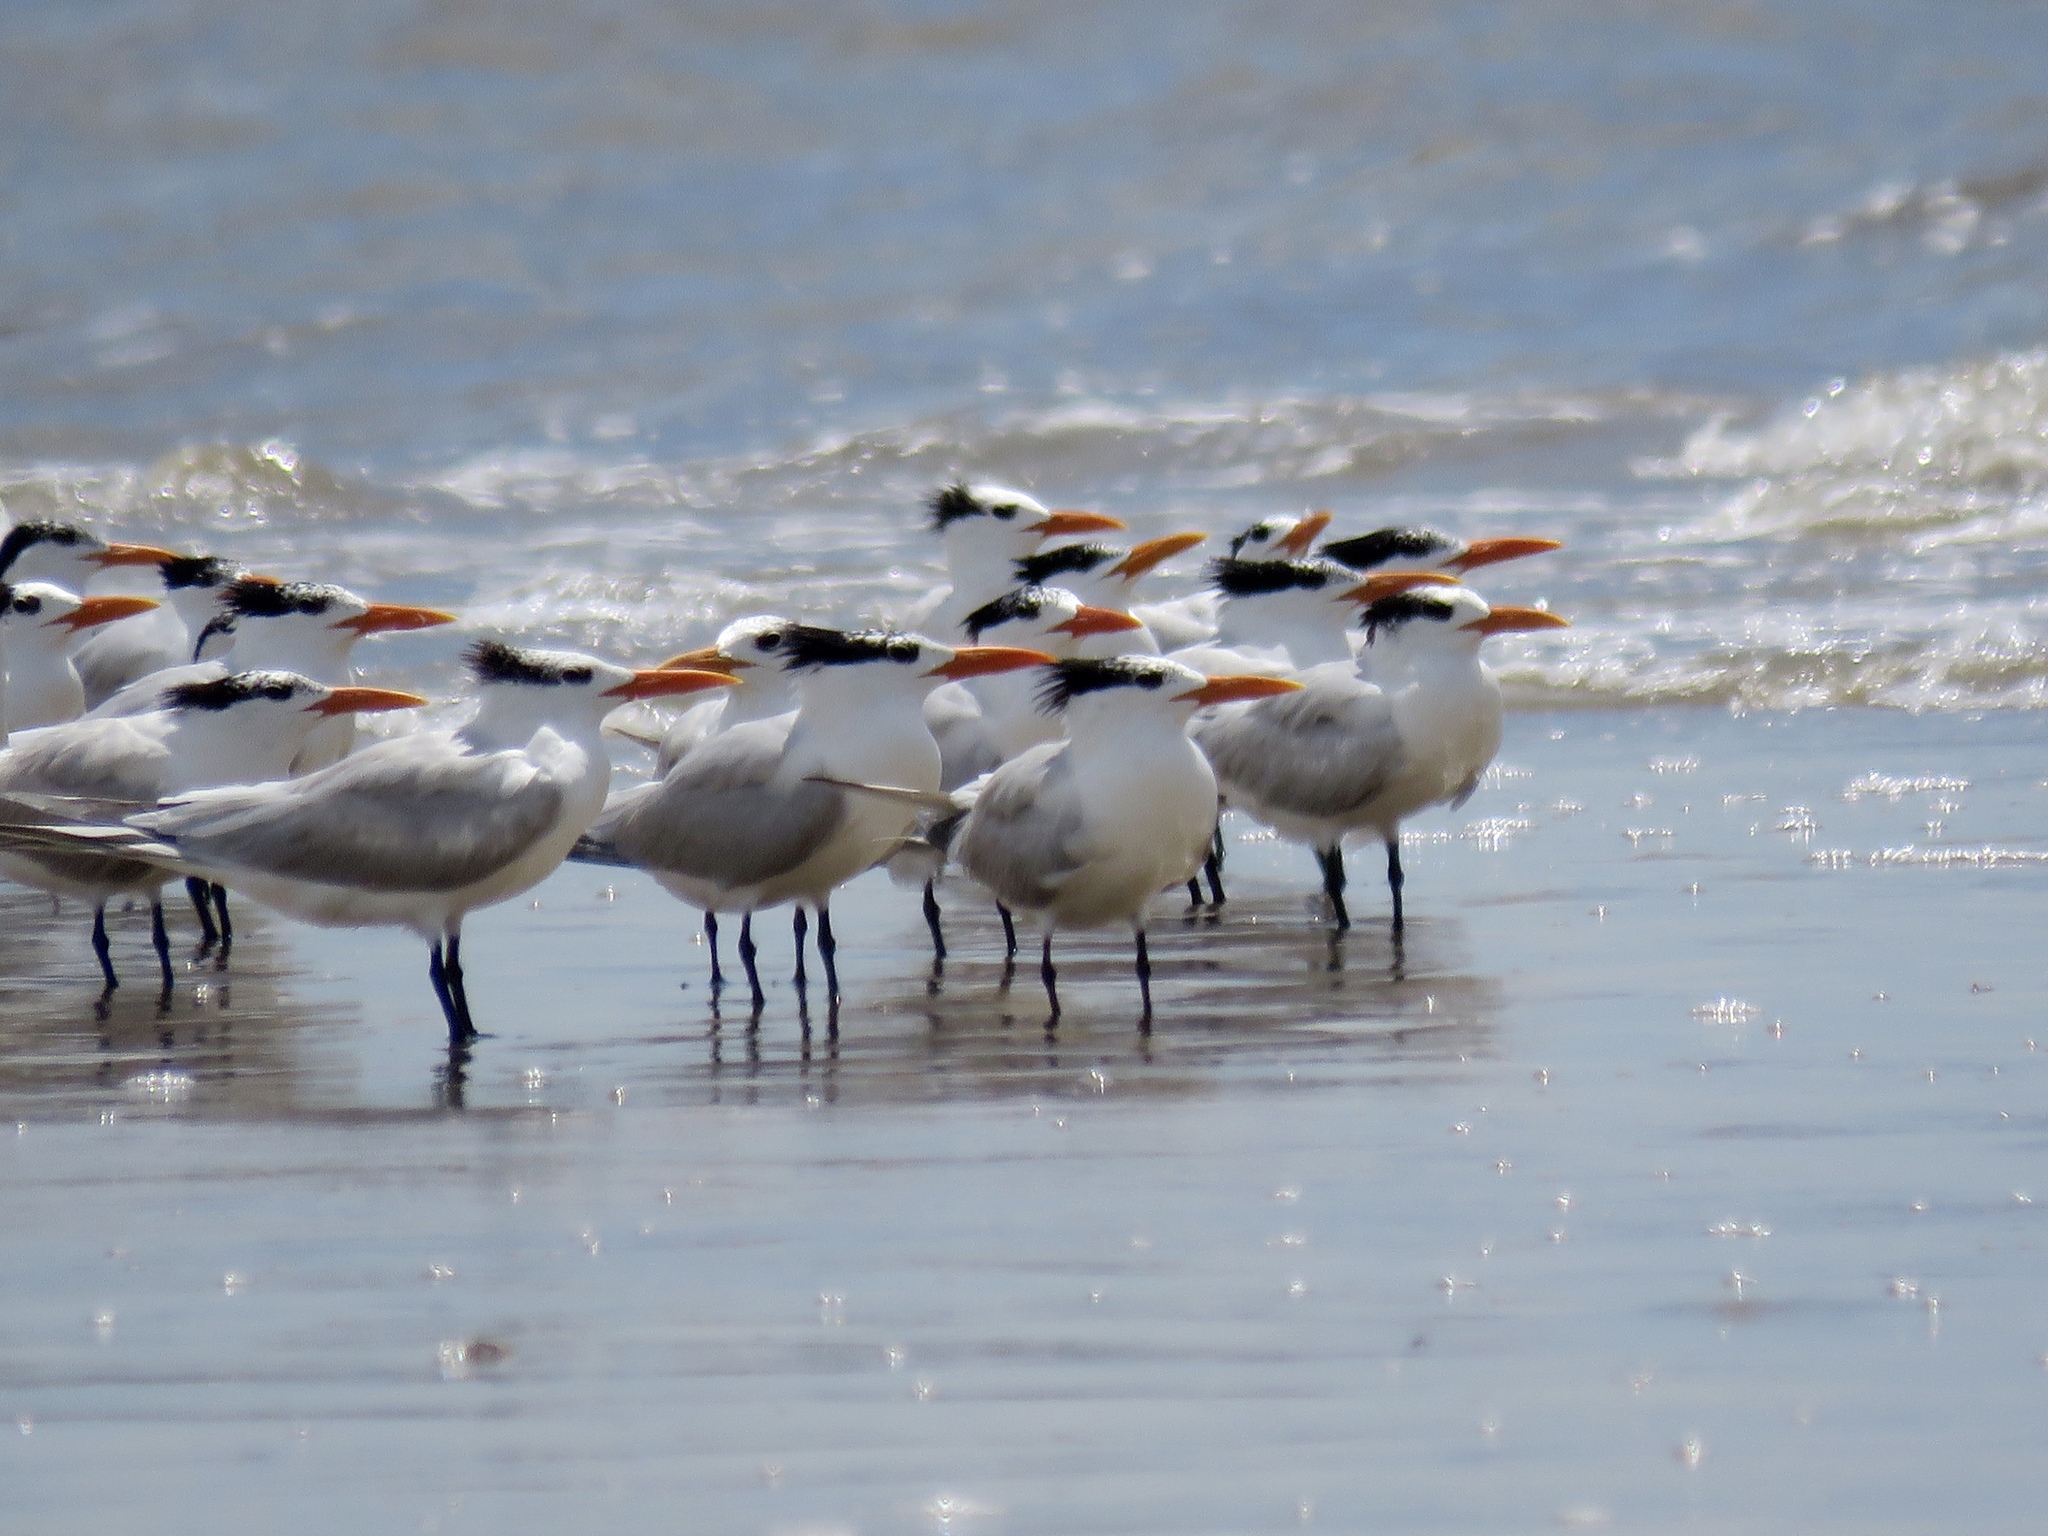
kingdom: Animalia
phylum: Chordata
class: Aves
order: Charadriiformes
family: Laridae
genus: Thalasseus
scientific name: Thalasseus maximus
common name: Royal tern
